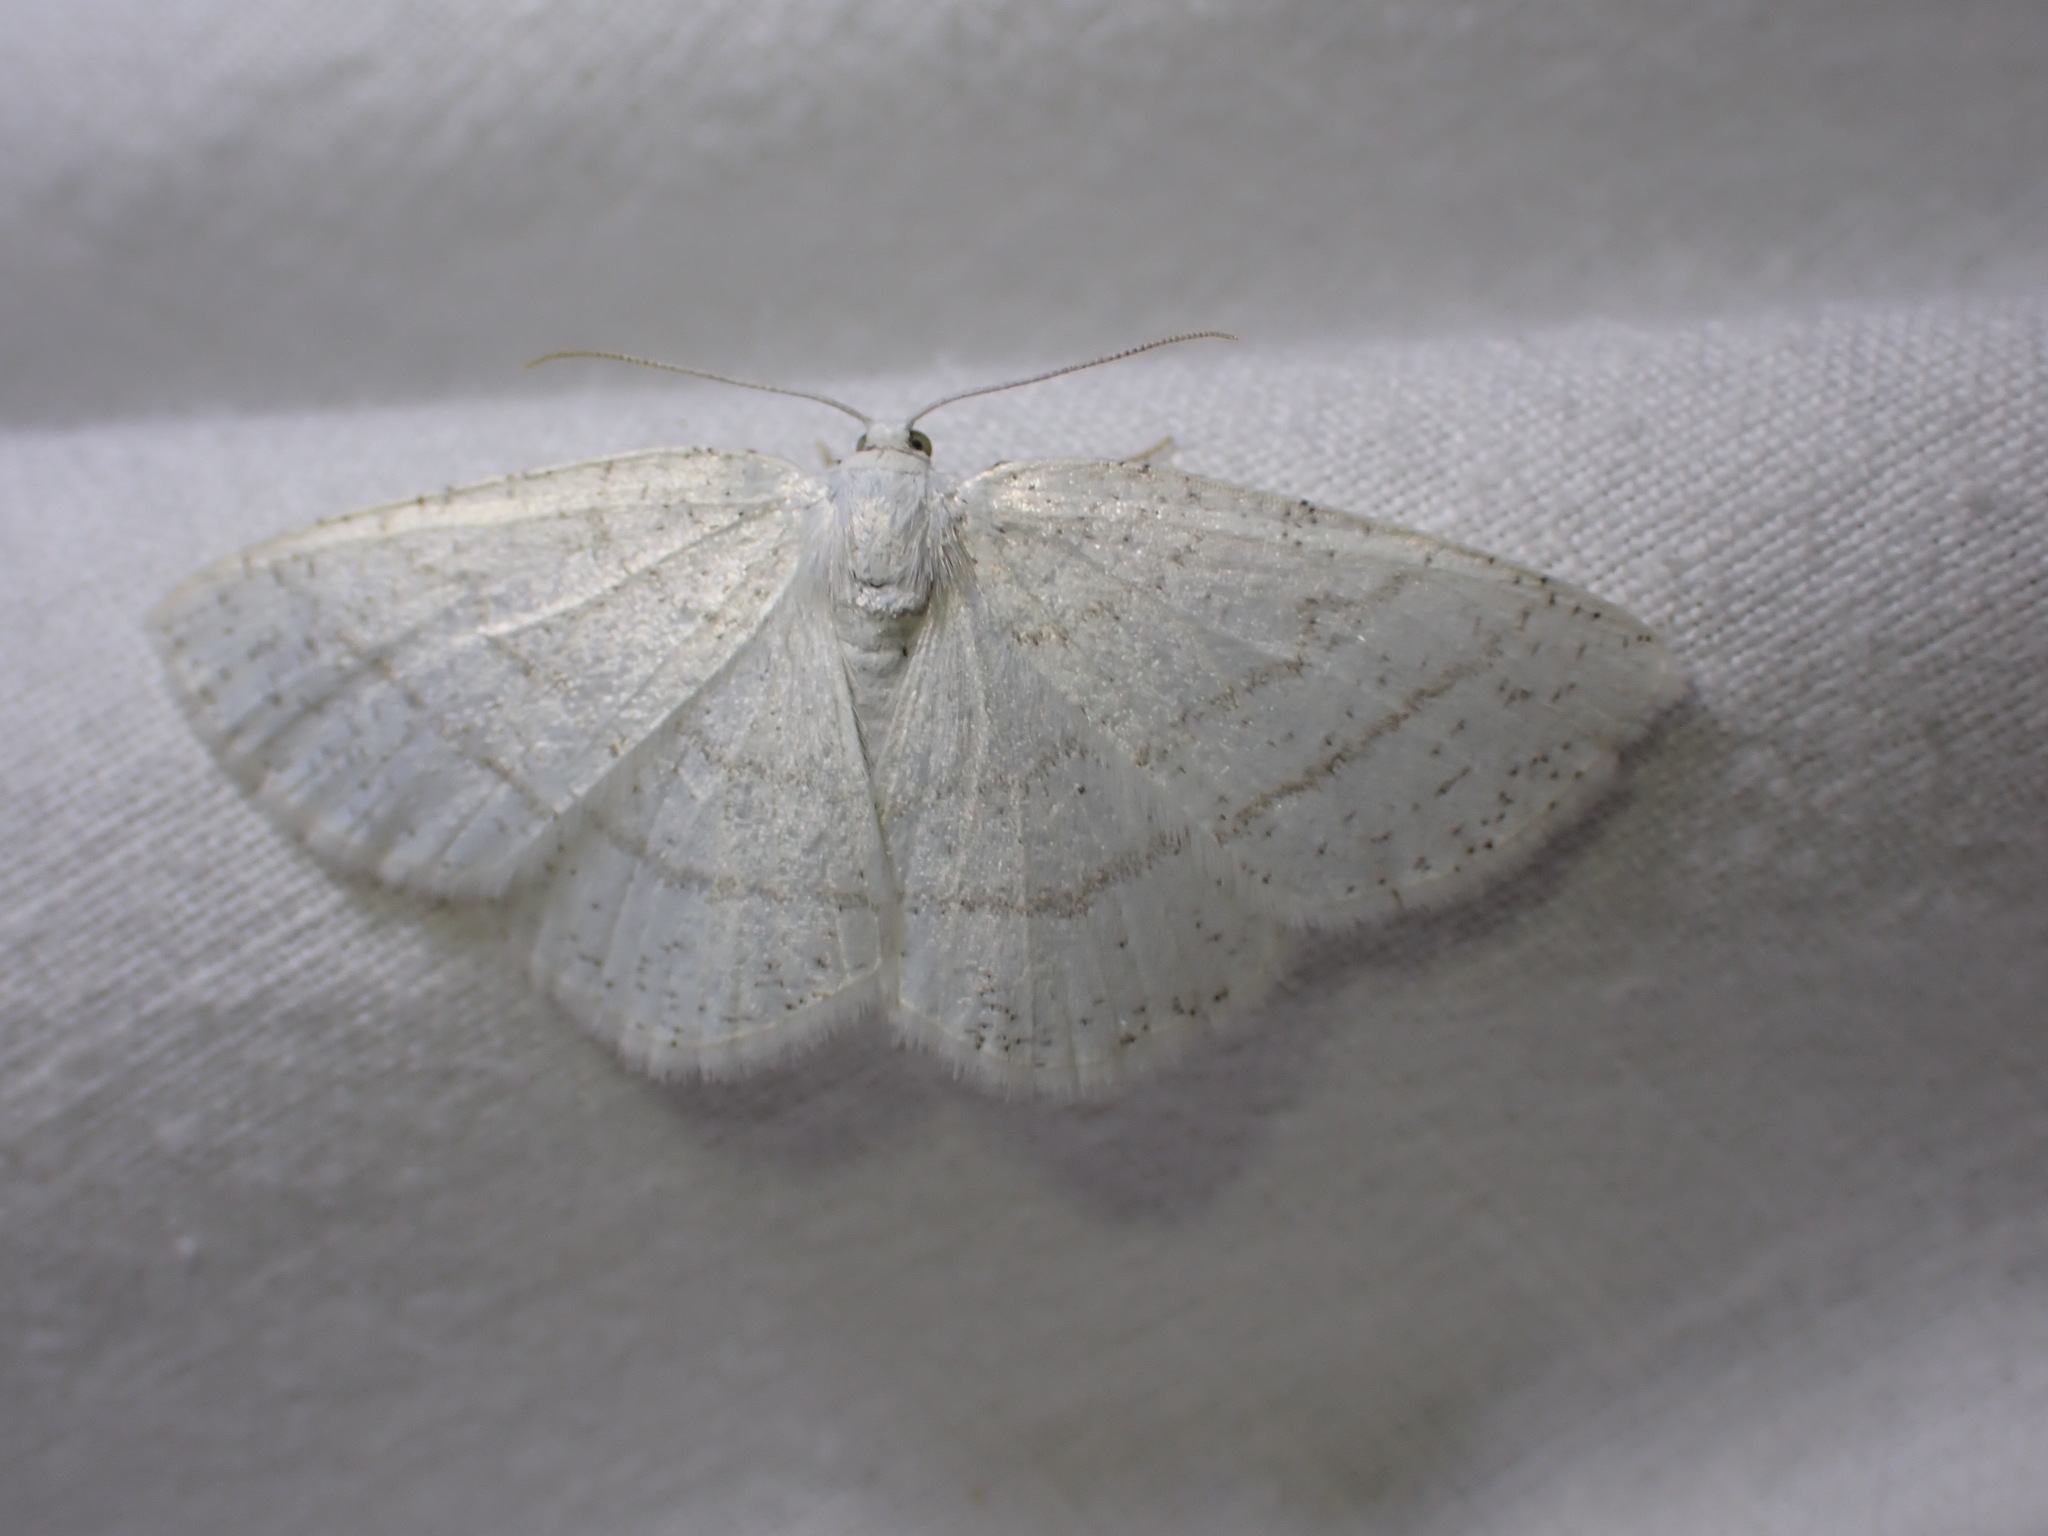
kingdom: Animalia
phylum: Arthropoda
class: Insecta
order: Lepidoptera
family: Geometridae
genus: Cabera
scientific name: Cabera pusaria
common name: Common white wave
